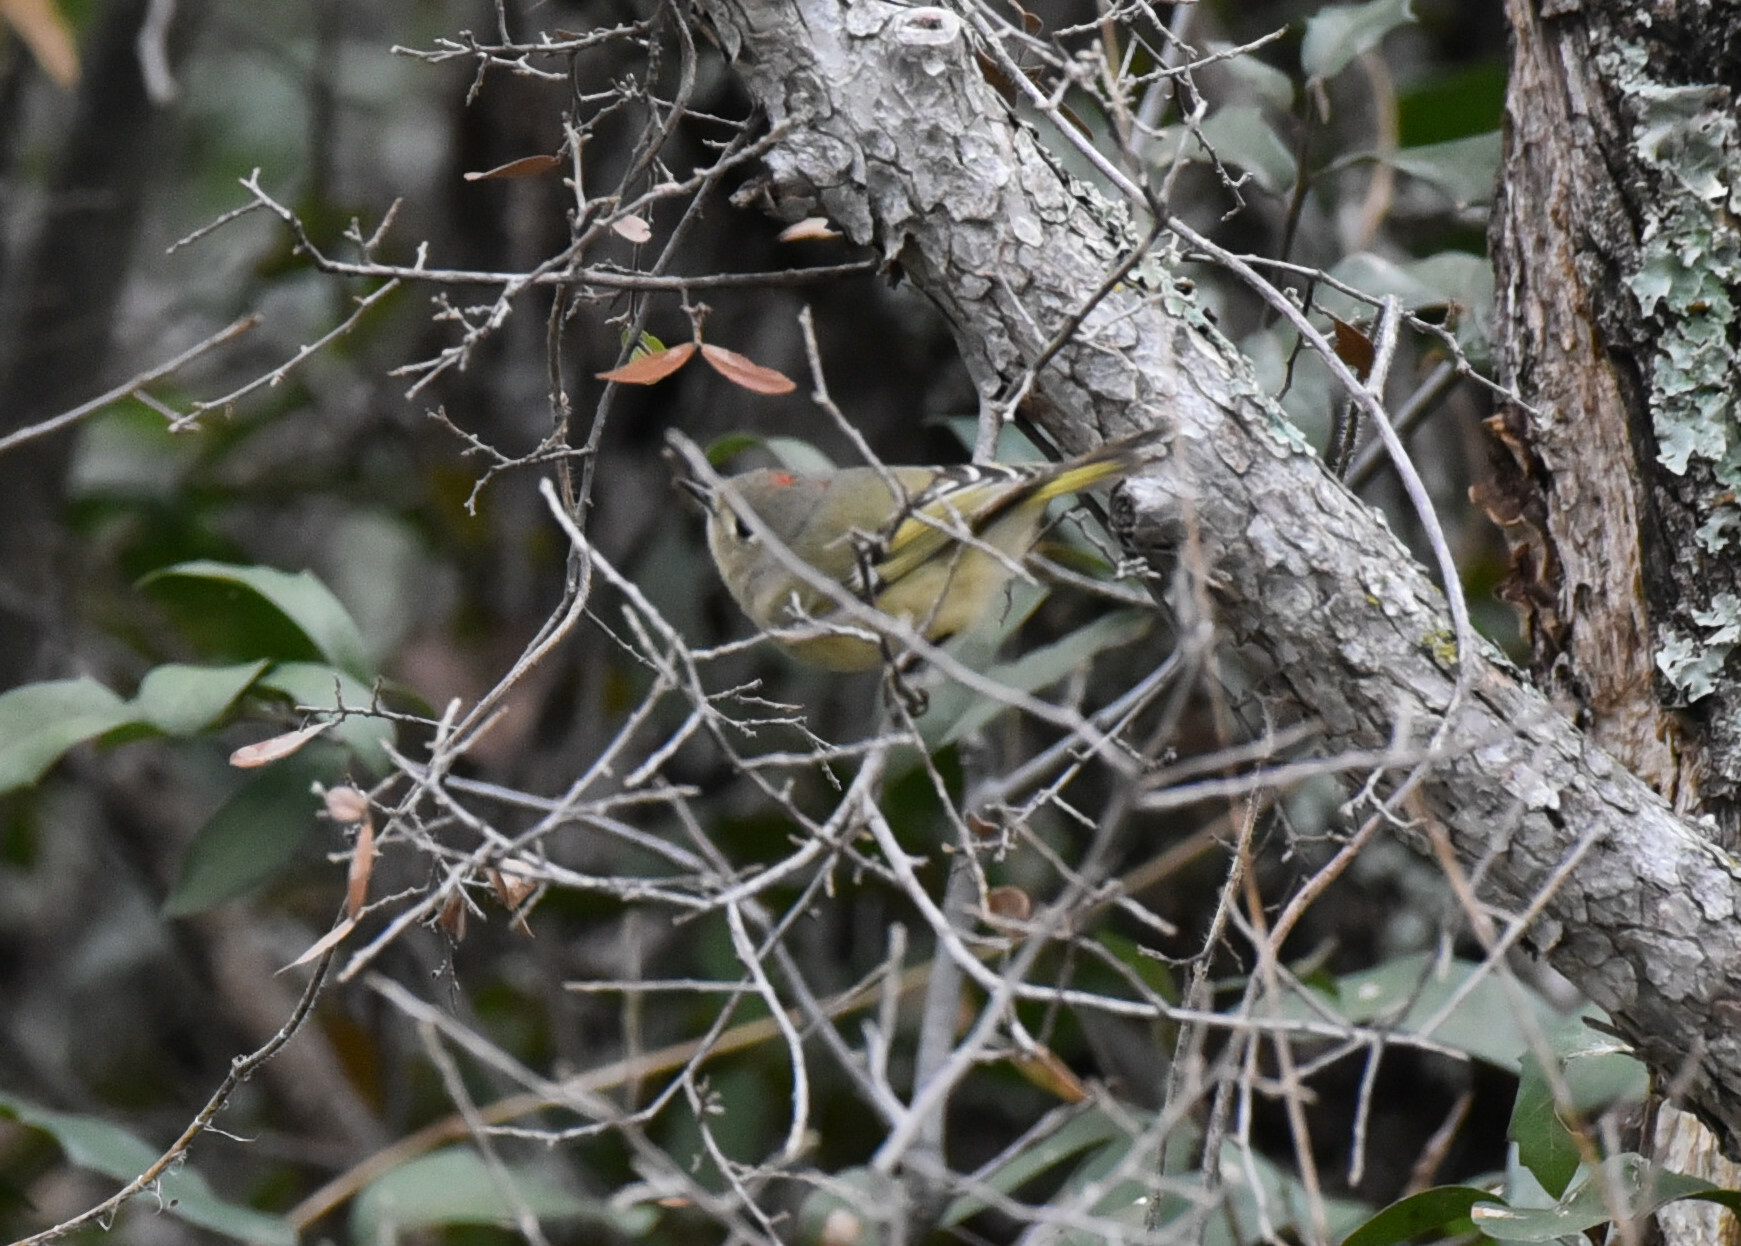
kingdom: Animalia
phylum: Chordata
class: Aves
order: Passeriformes
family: Regulidae
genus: Regulus
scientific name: Regulus calendula
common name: Ruby-crowned kinglet
